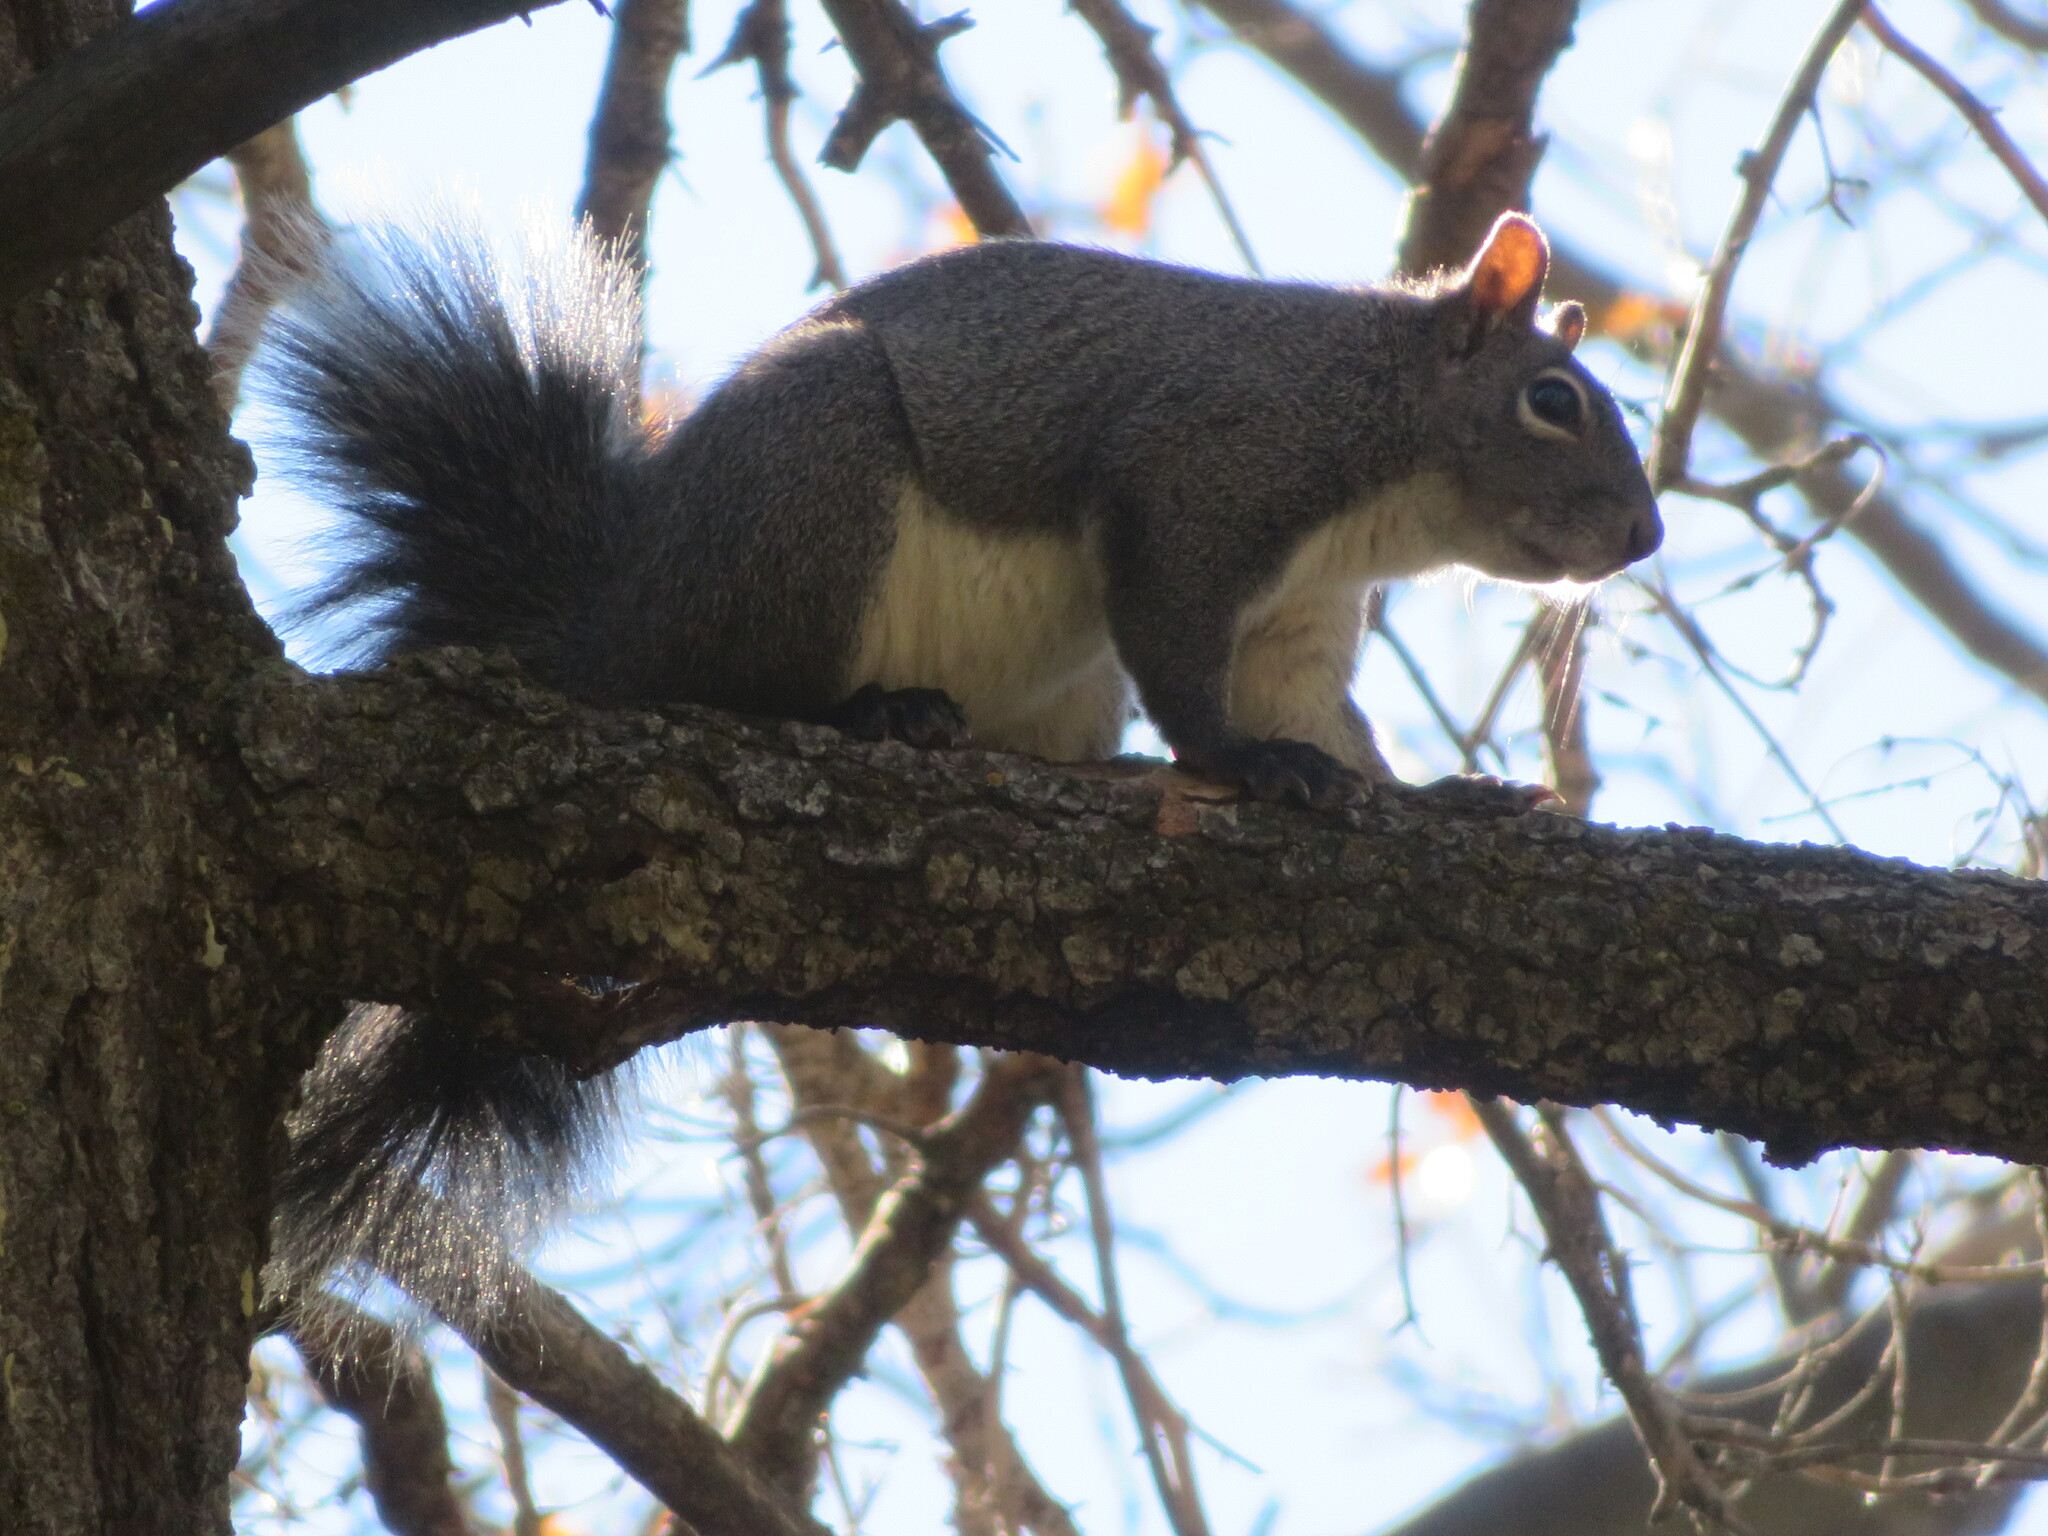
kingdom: Animalia
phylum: Chordata
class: Mammalia
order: Rodentia
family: Sciuridae
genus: Sciurus
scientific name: Sciurus griseus
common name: Western gray squirrel
